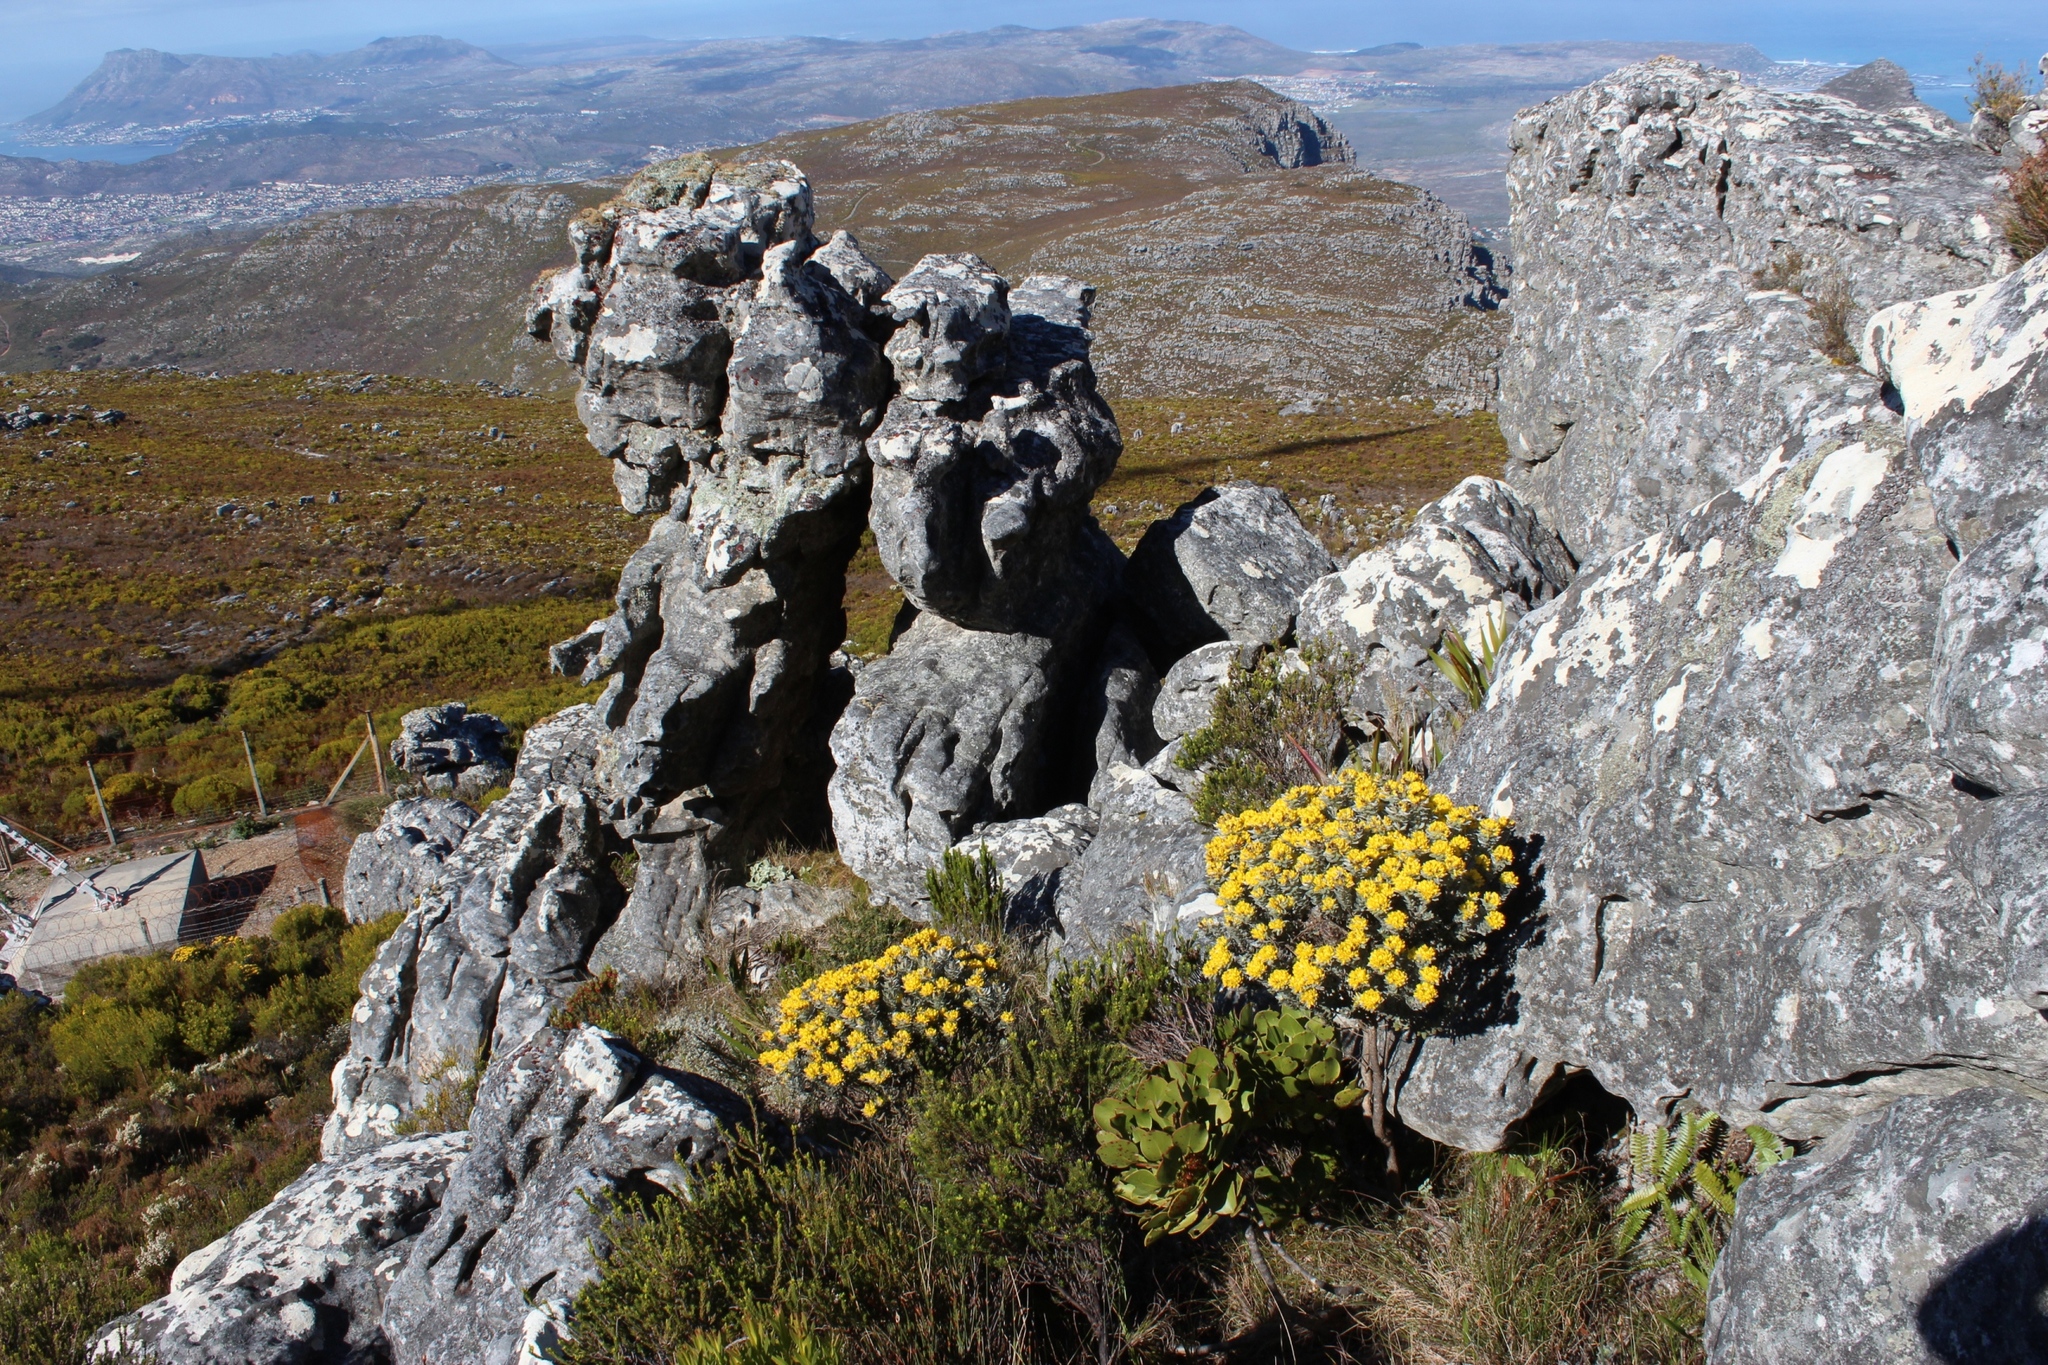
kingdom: Plantae
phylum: Tracheophyta
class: Magnoliopsida
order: Fabales
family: Fabaceae
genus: Xiphotheca
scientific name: Xiphotheca fruticosa
